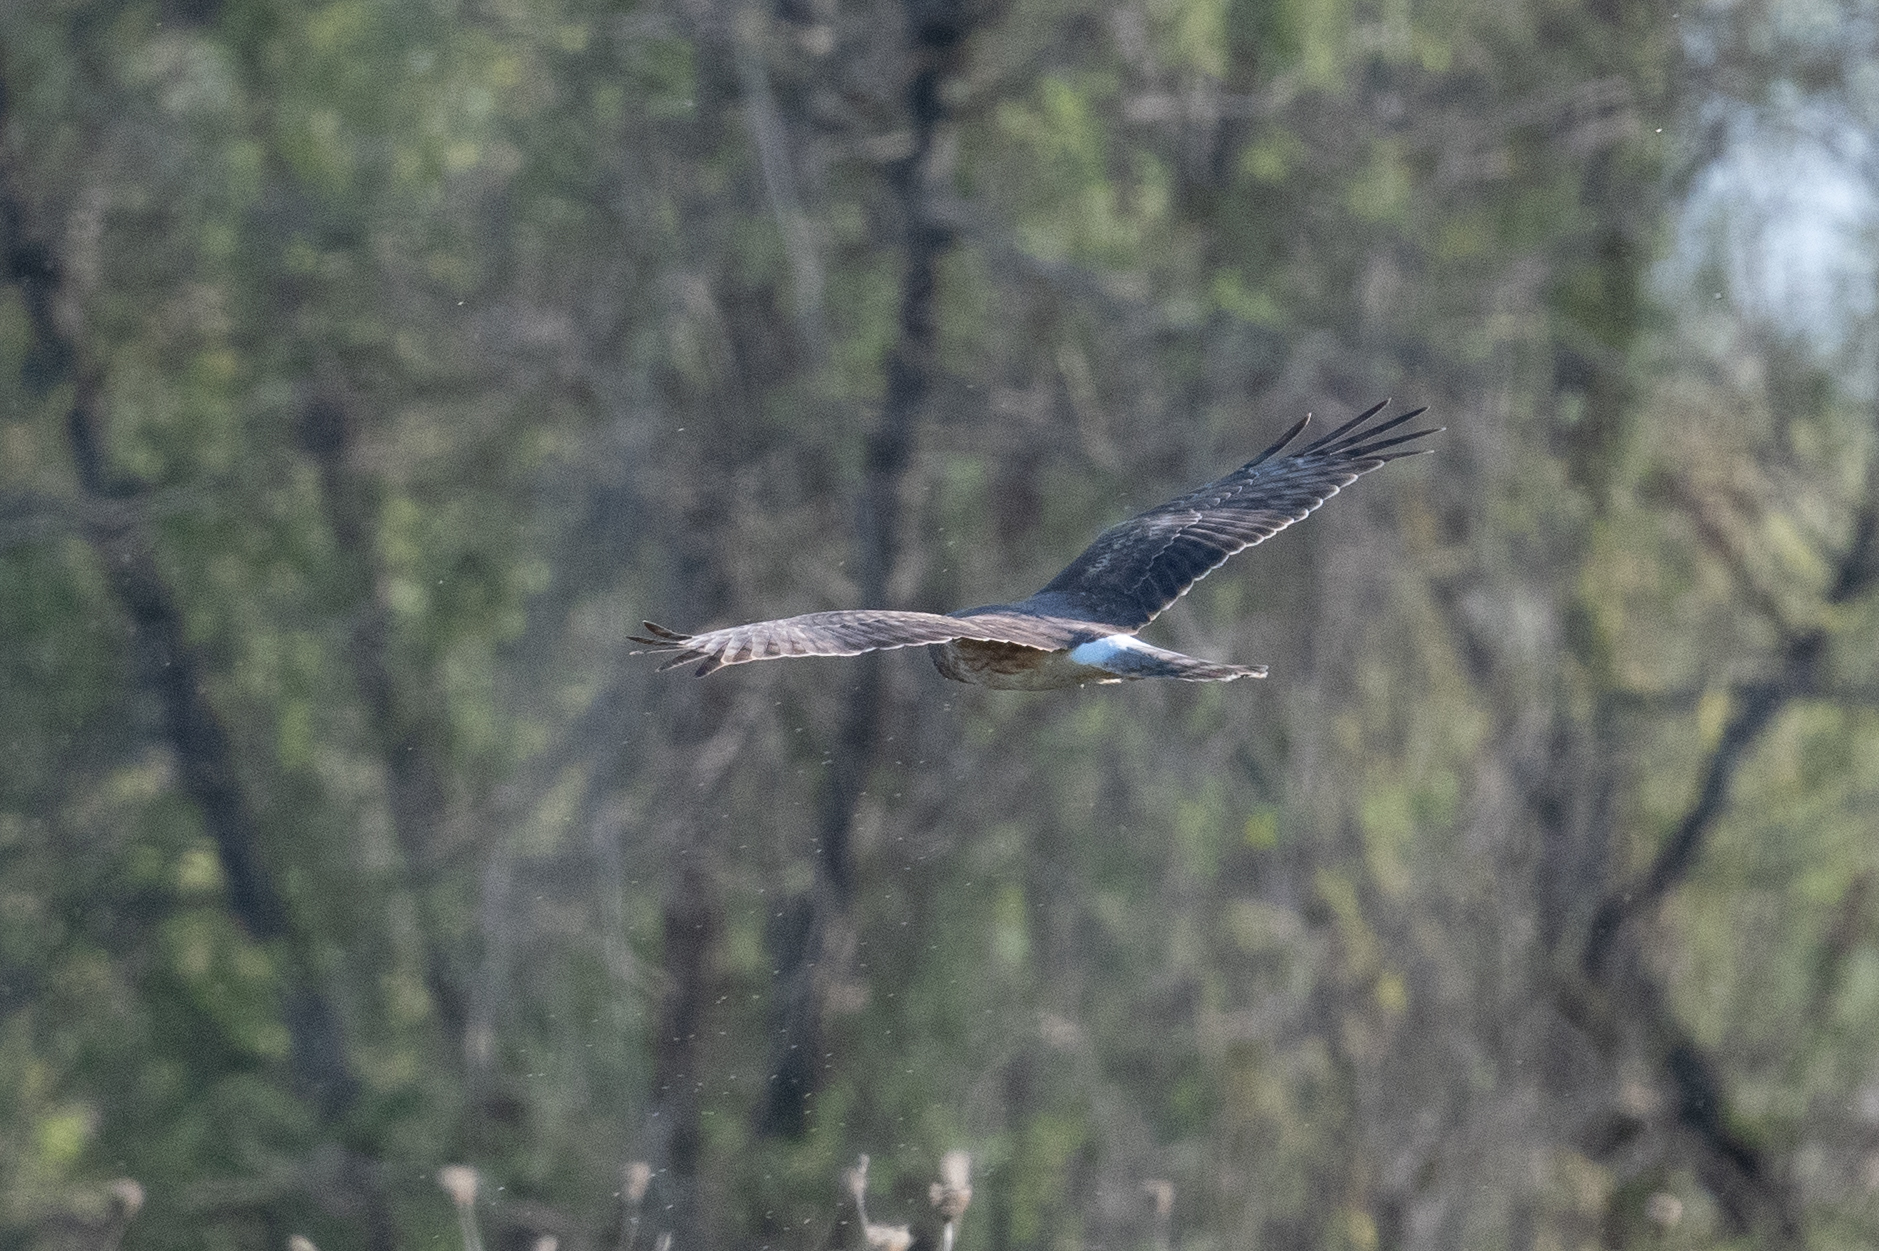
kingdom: Animalia
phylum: Chordata
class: Aves
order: Accipitriformes
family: Accipitridae
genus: Circus
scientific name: Circus cyaneus
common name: Hen harrier
